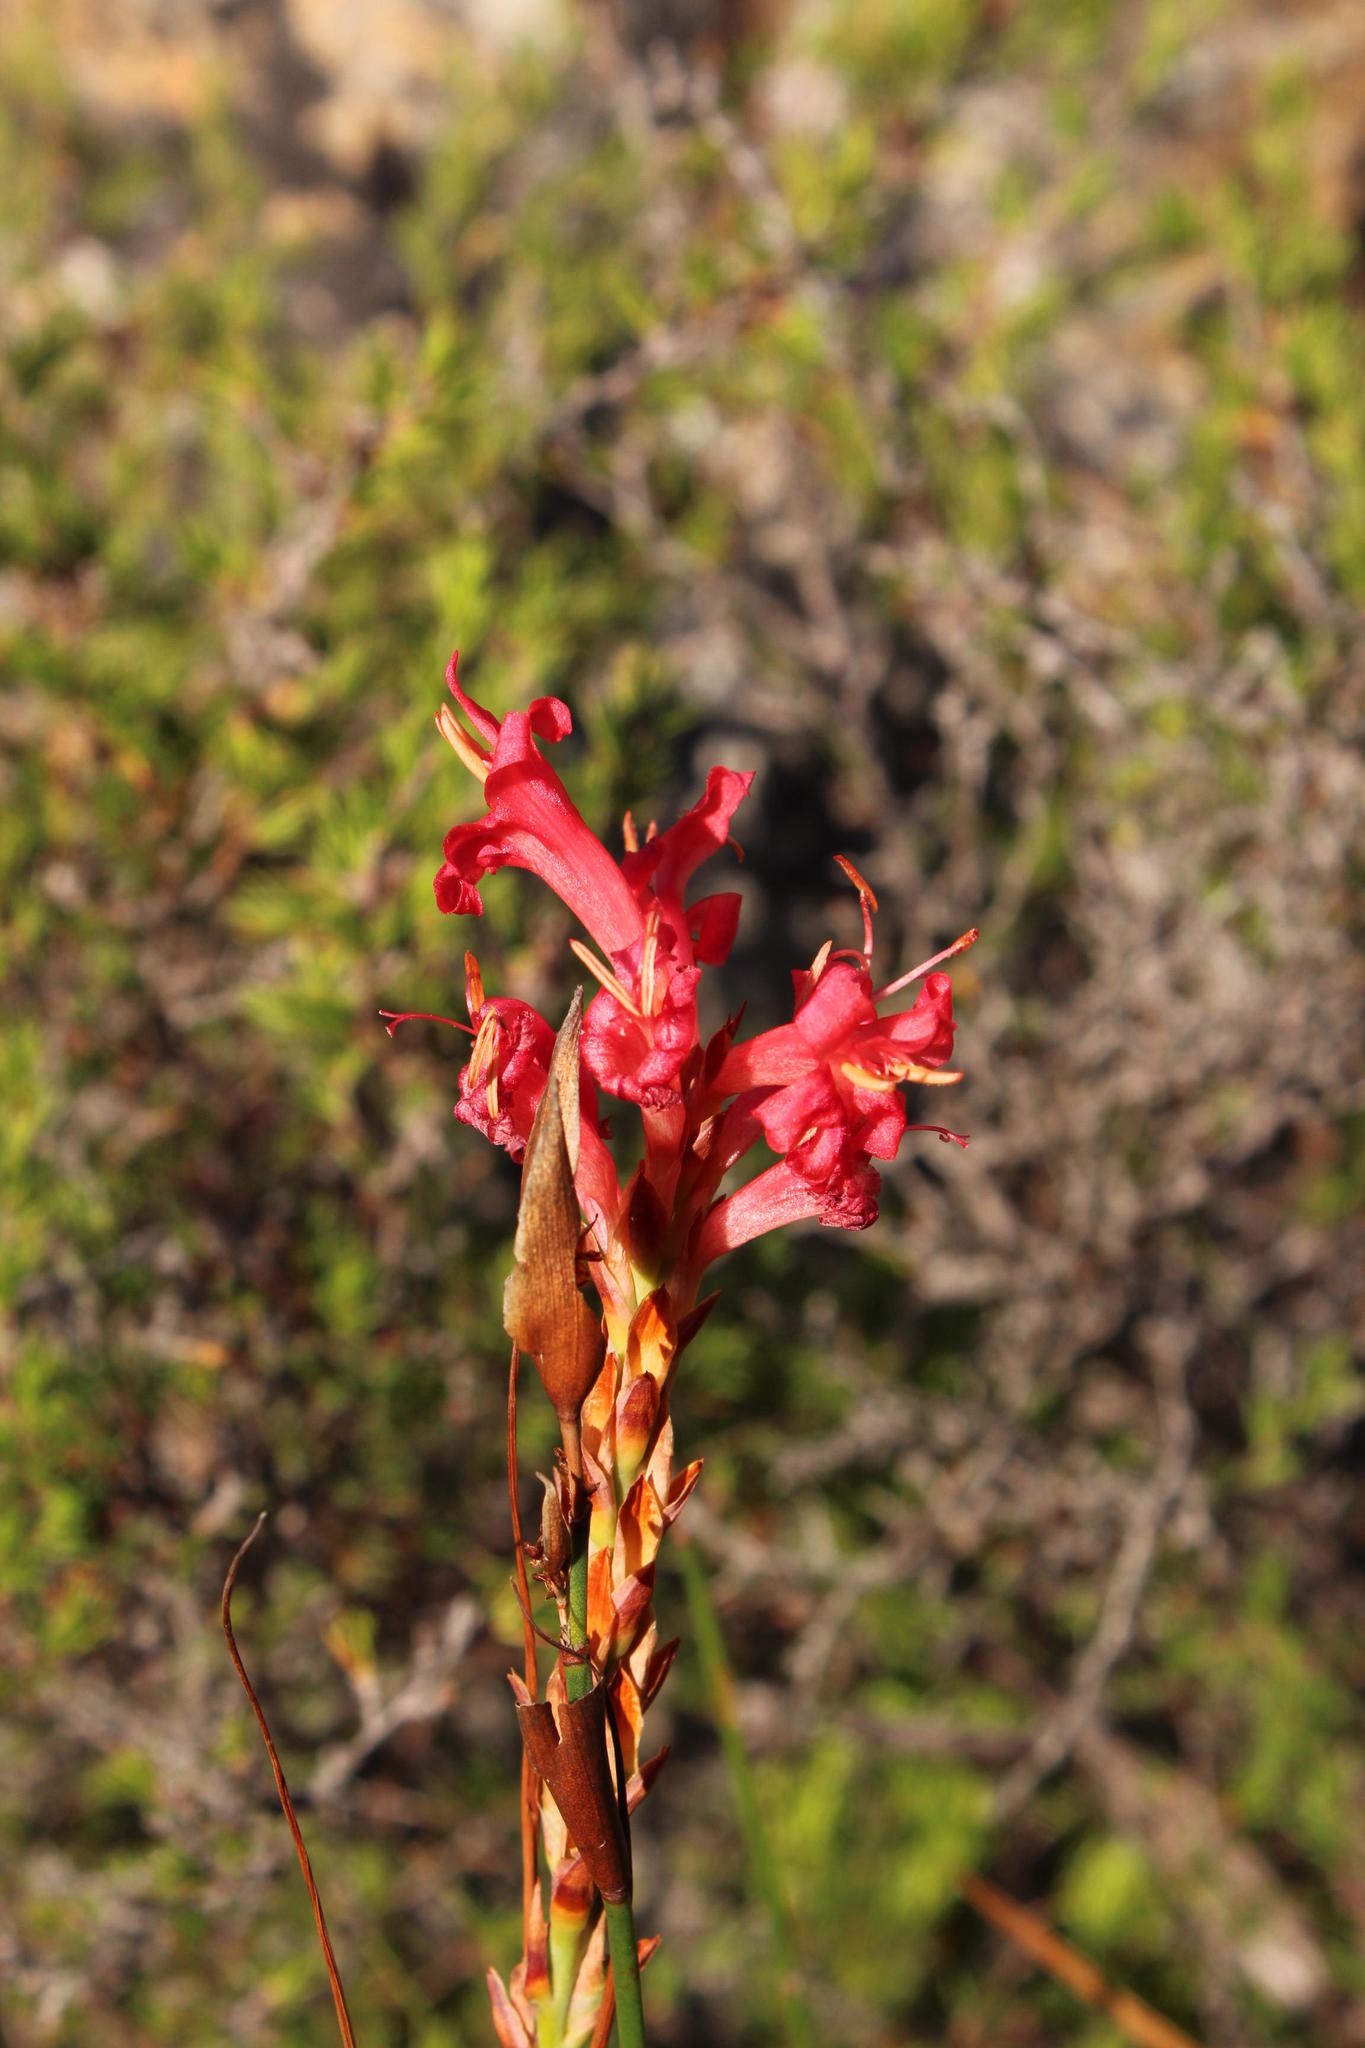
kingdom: Plantae
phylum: Tracheophyta
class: Liliopsida
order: Asparagales
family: Iridaceae
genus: Tritoniopsis
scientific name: Tritoniopsis antholyza
